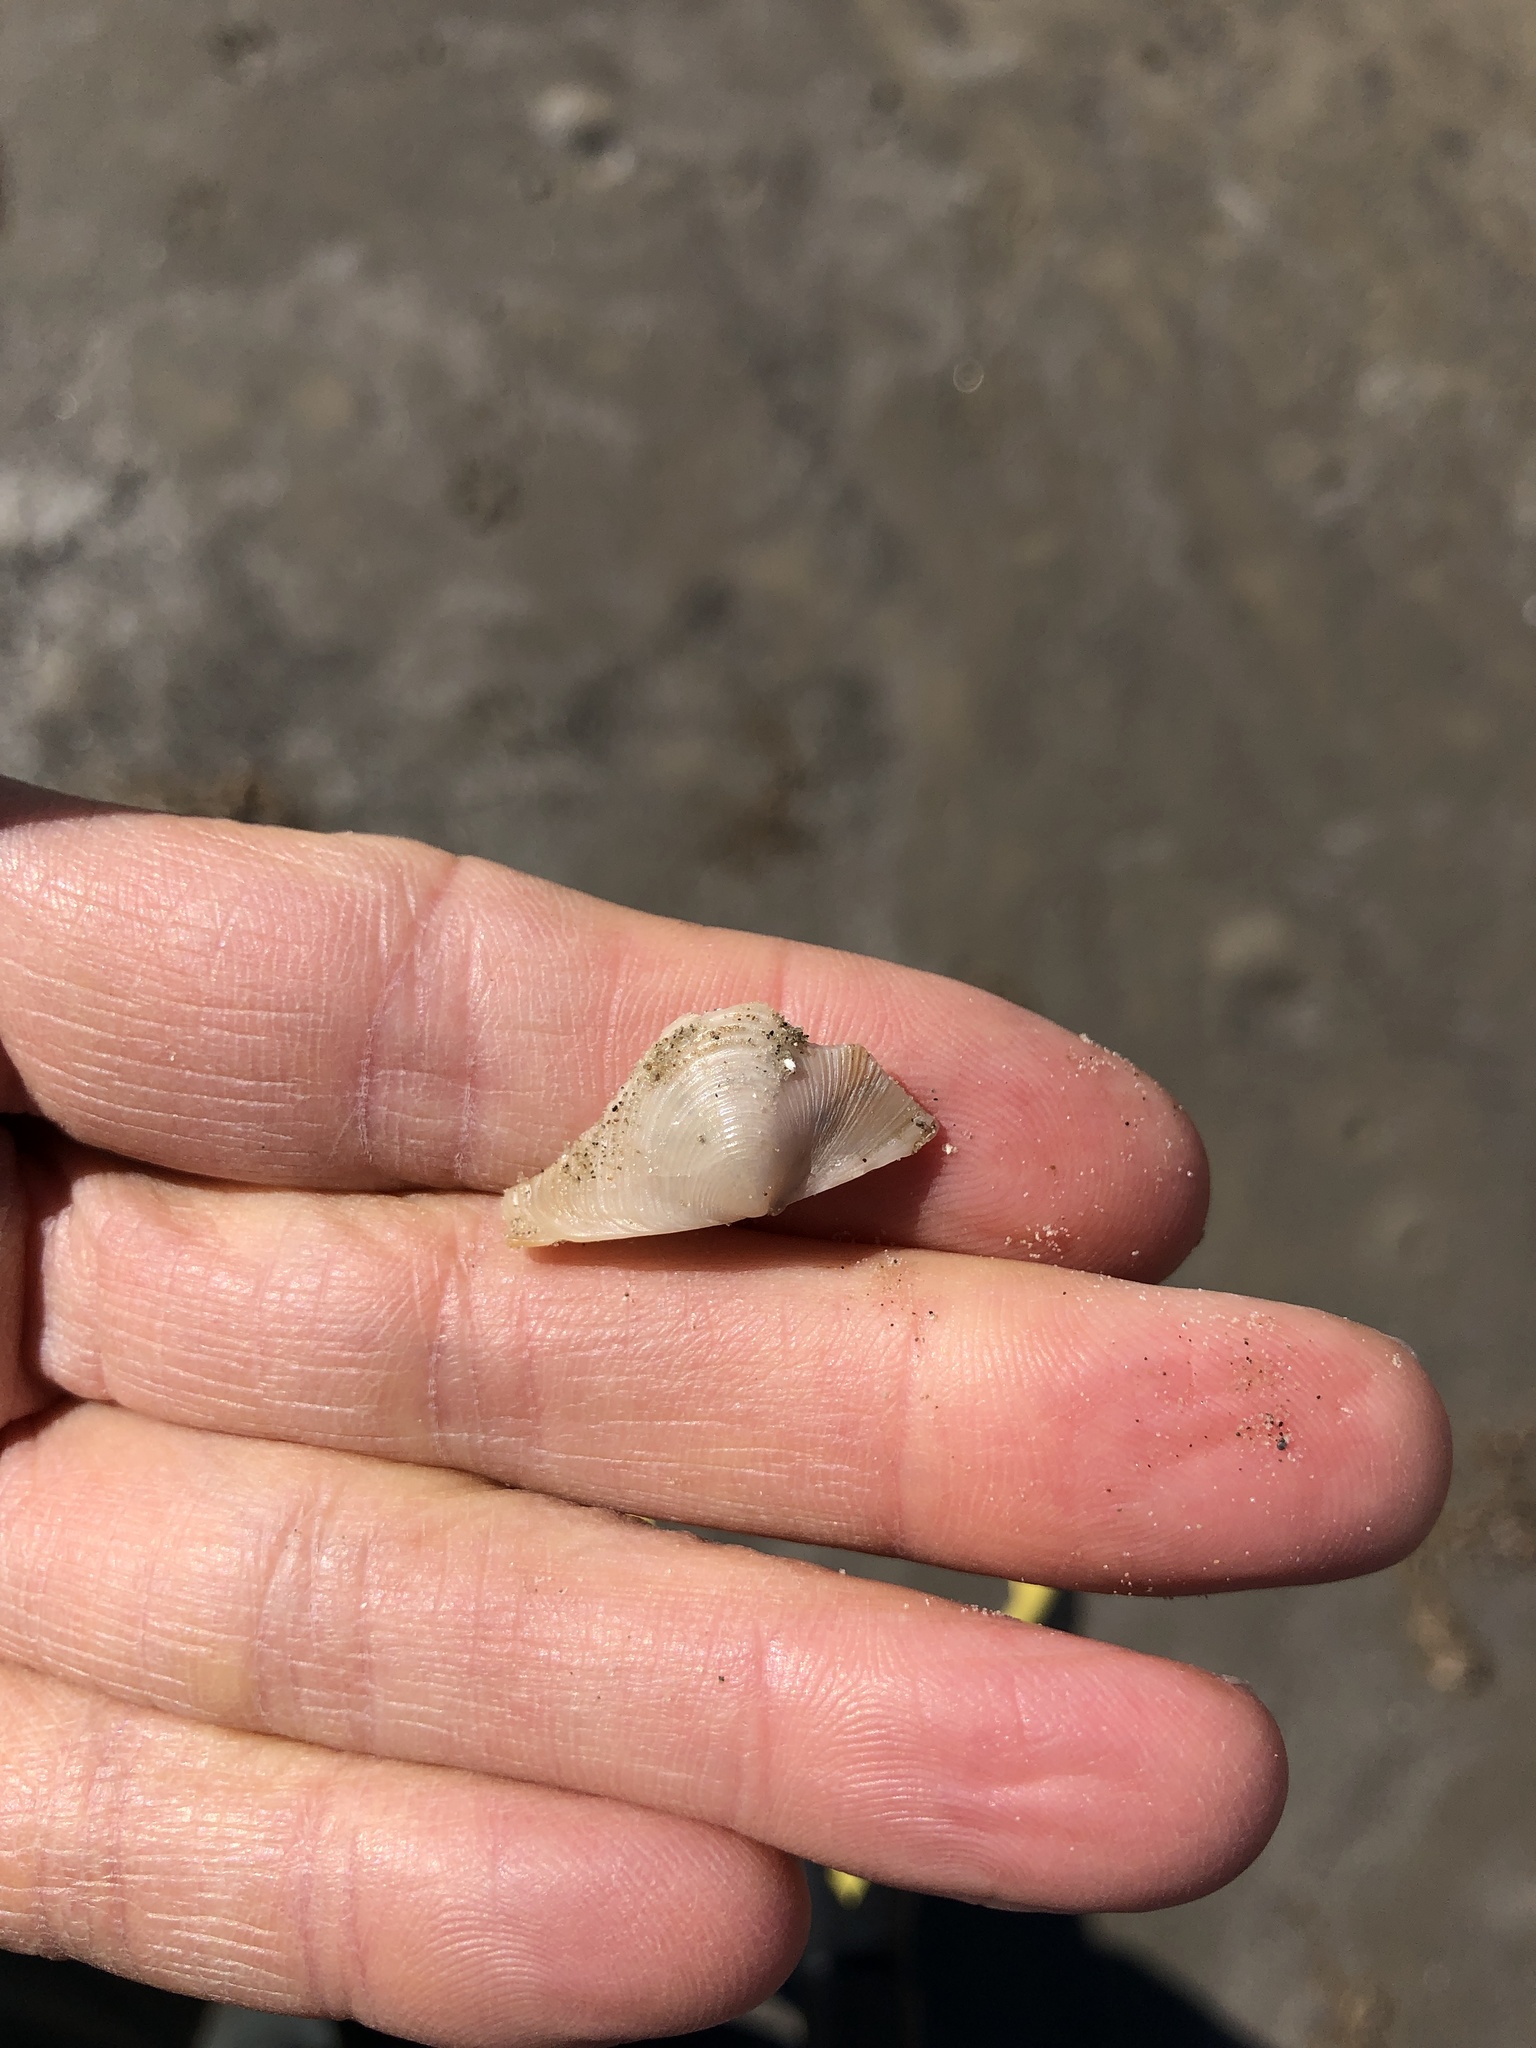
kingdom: Animalia
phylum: Mollusca
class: Bivalvia
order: Venerida
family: Anatinellidae
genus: Raeta
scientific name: Raeta plicatella
